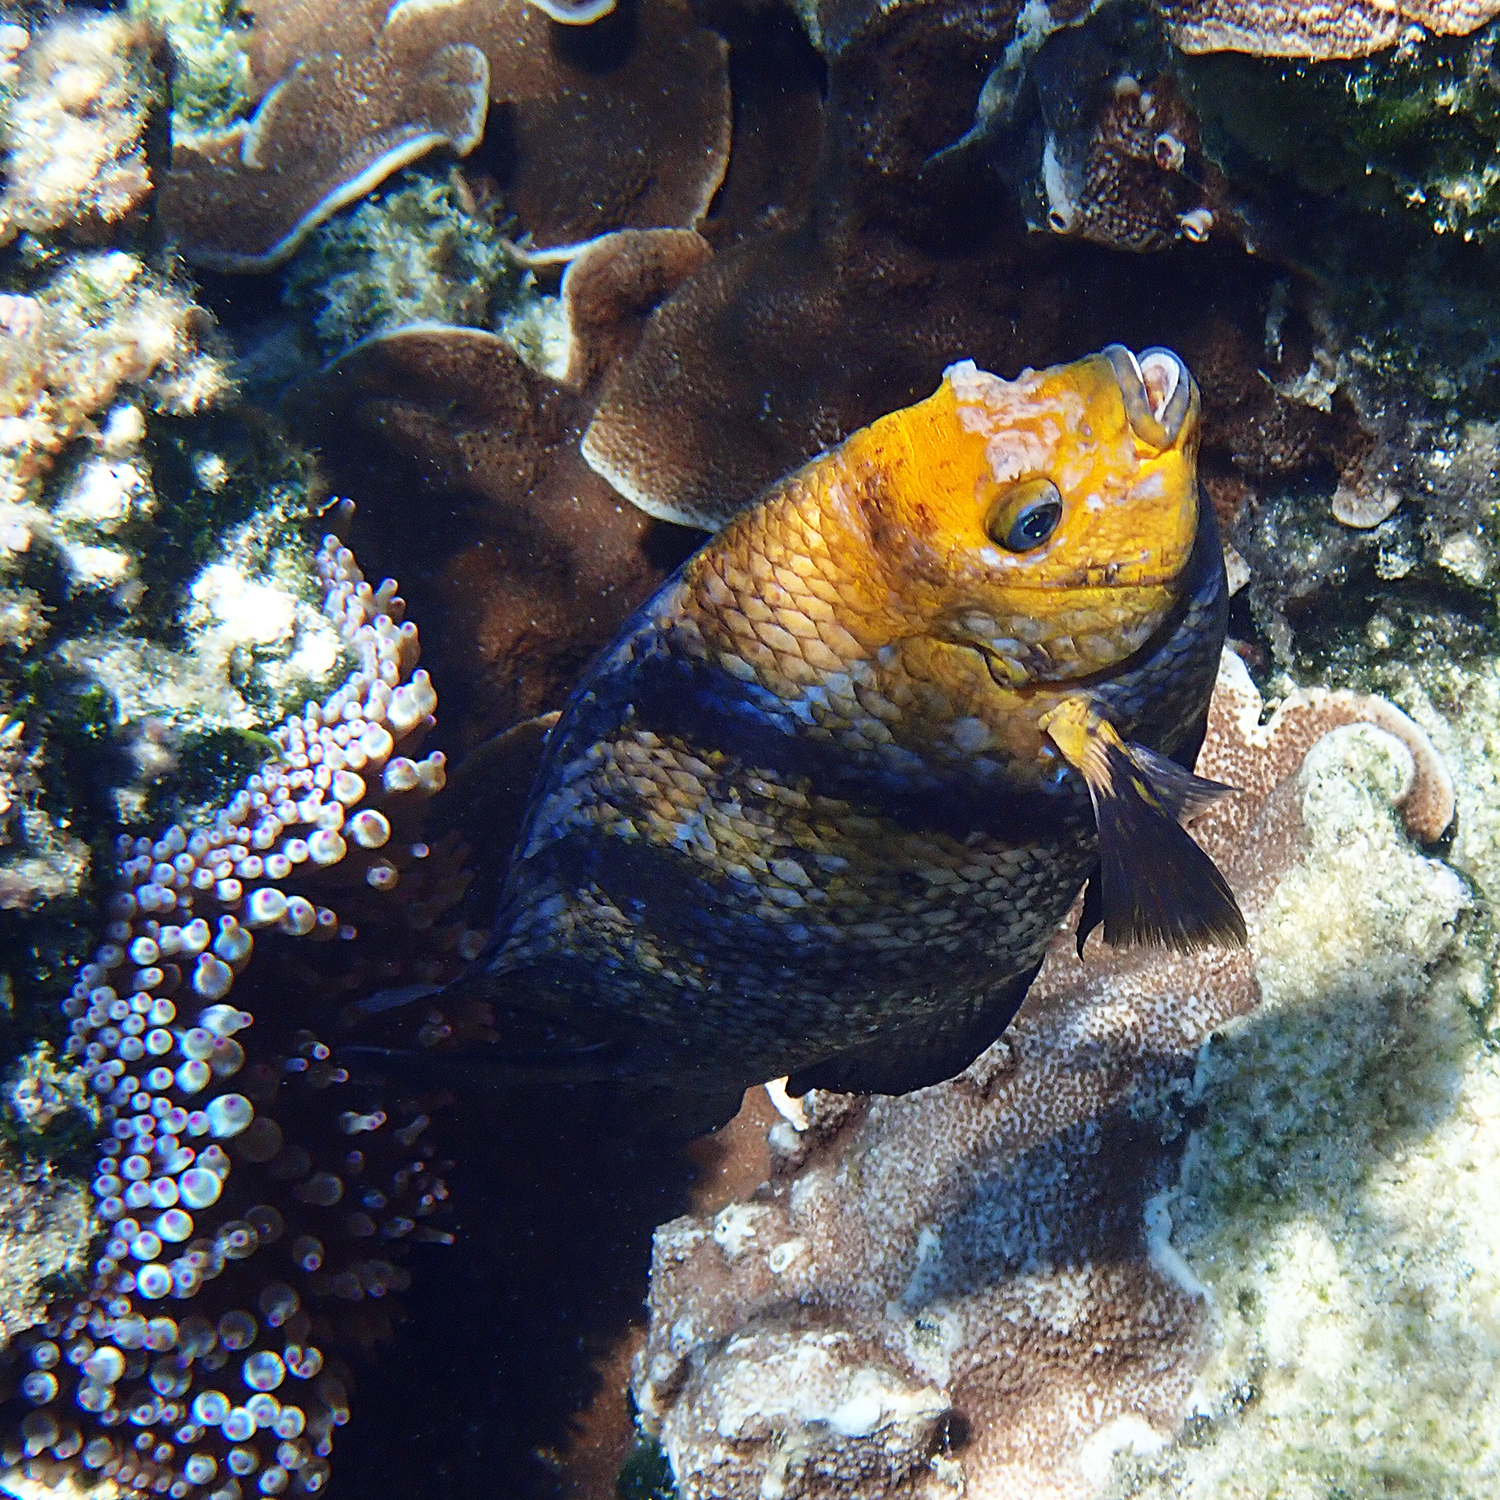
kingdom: Animalia
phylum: Chordata
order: Perciformes
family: Pomacentridae
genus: Parma
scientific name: Parma polylepis
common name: Banded parma
